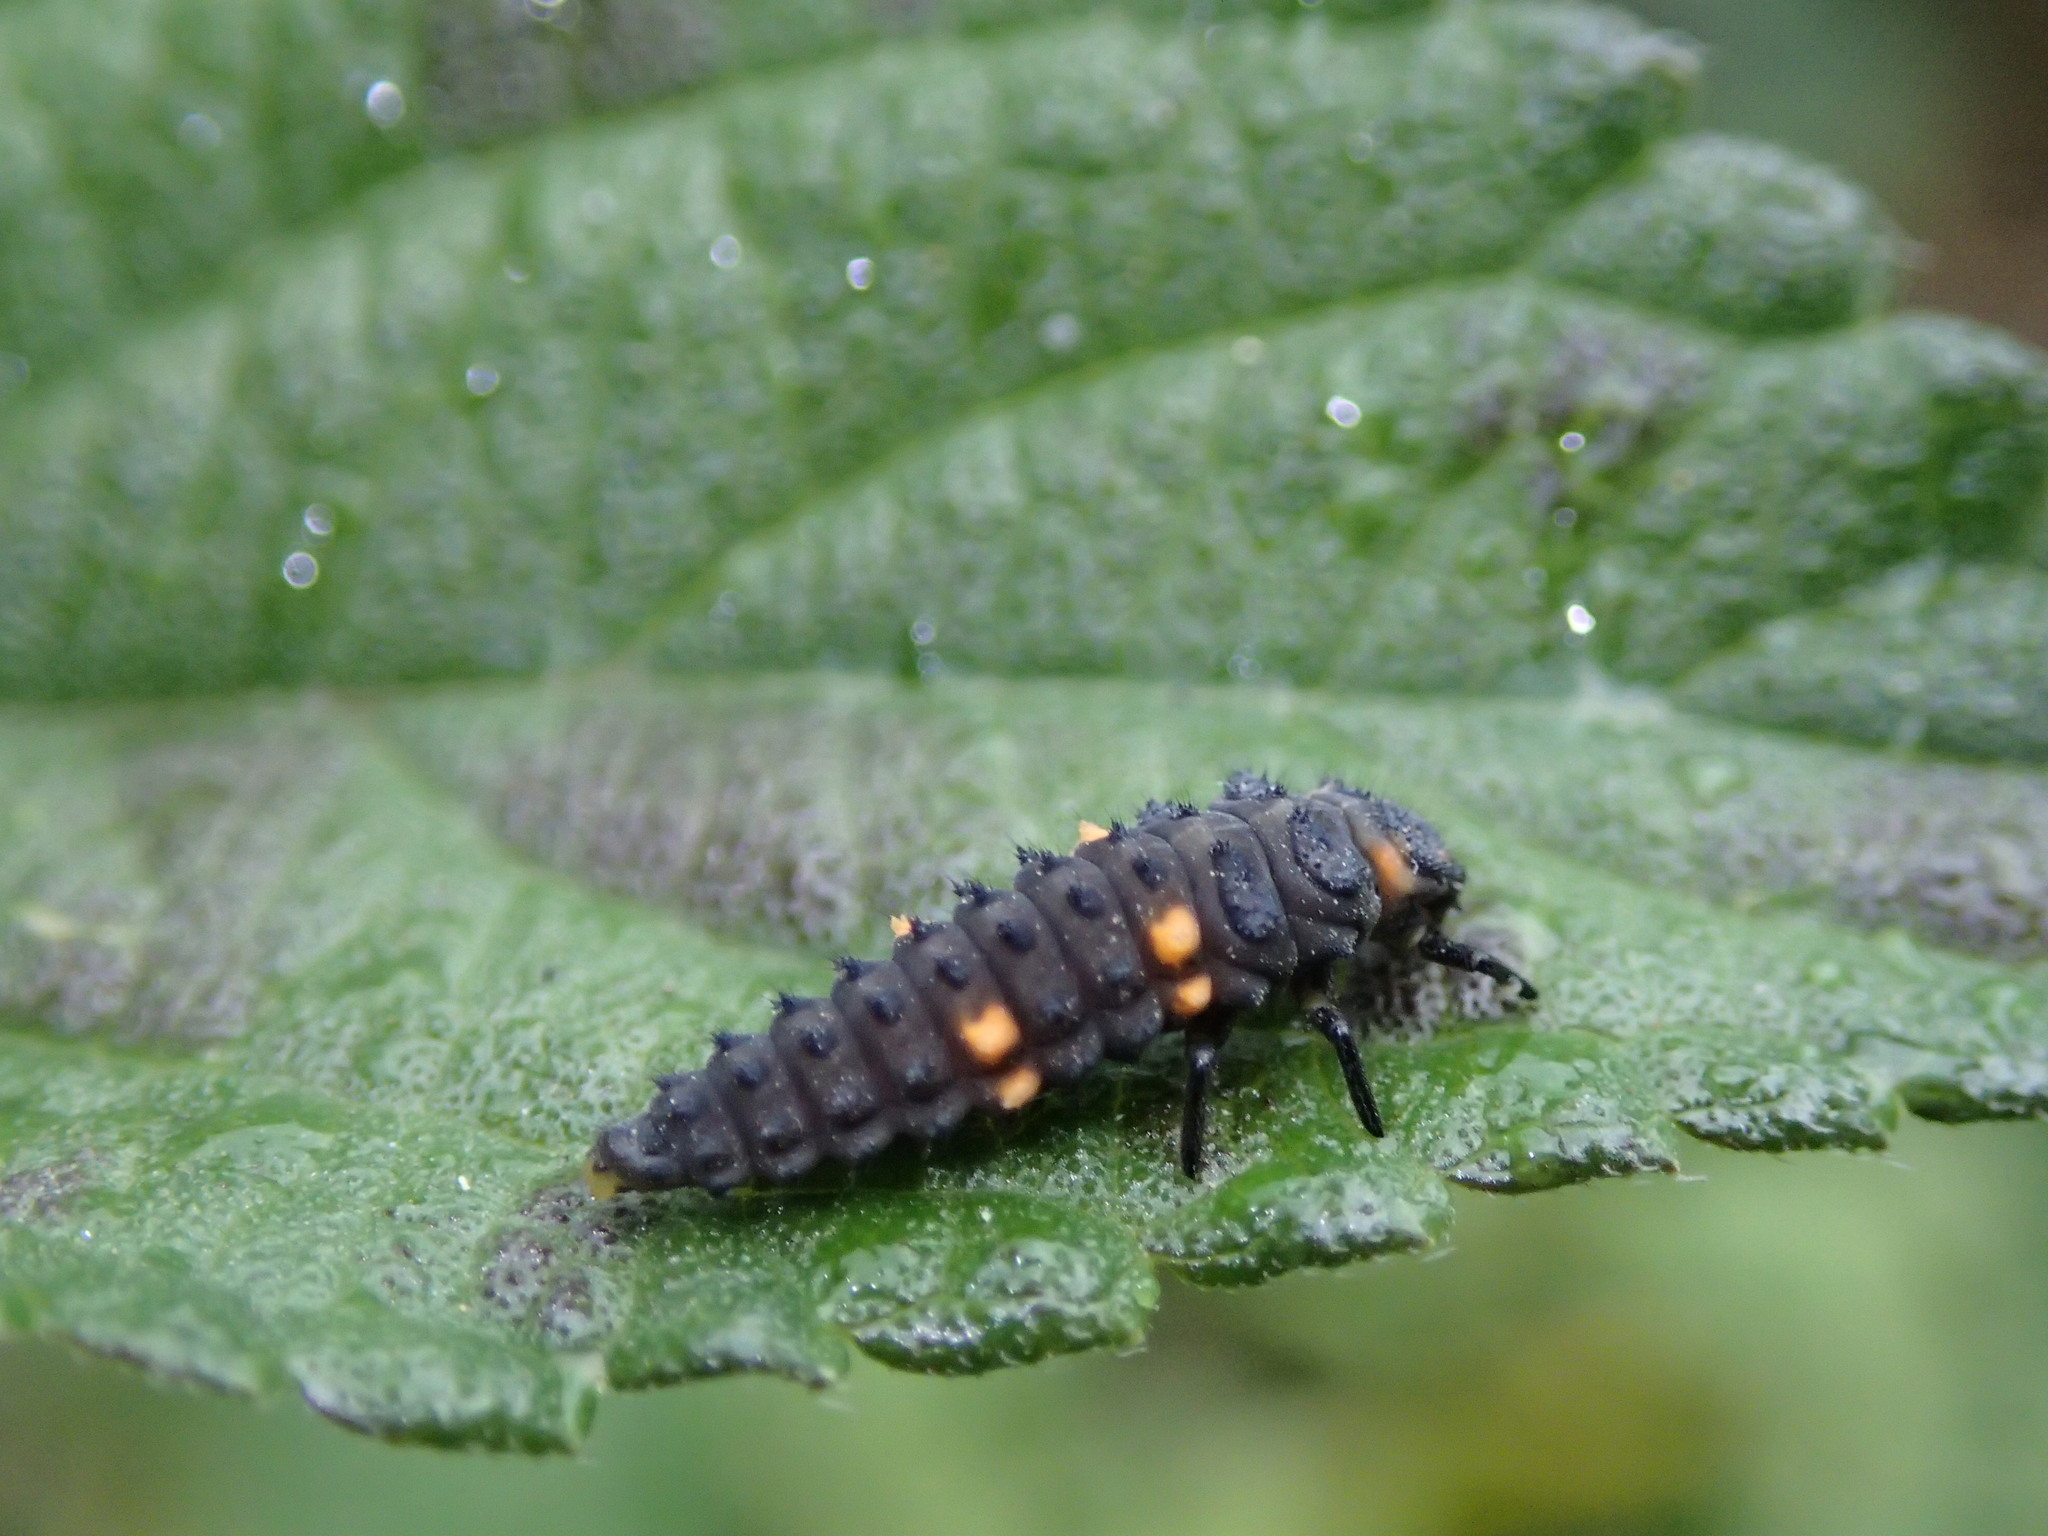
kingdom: Animalia
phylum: Arthropoda
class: Insecta
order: Coleoptera
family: Coccinellidae
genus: Coccinella
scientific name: Coccinella septempunctata
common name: Sevenspotted lady beetle
